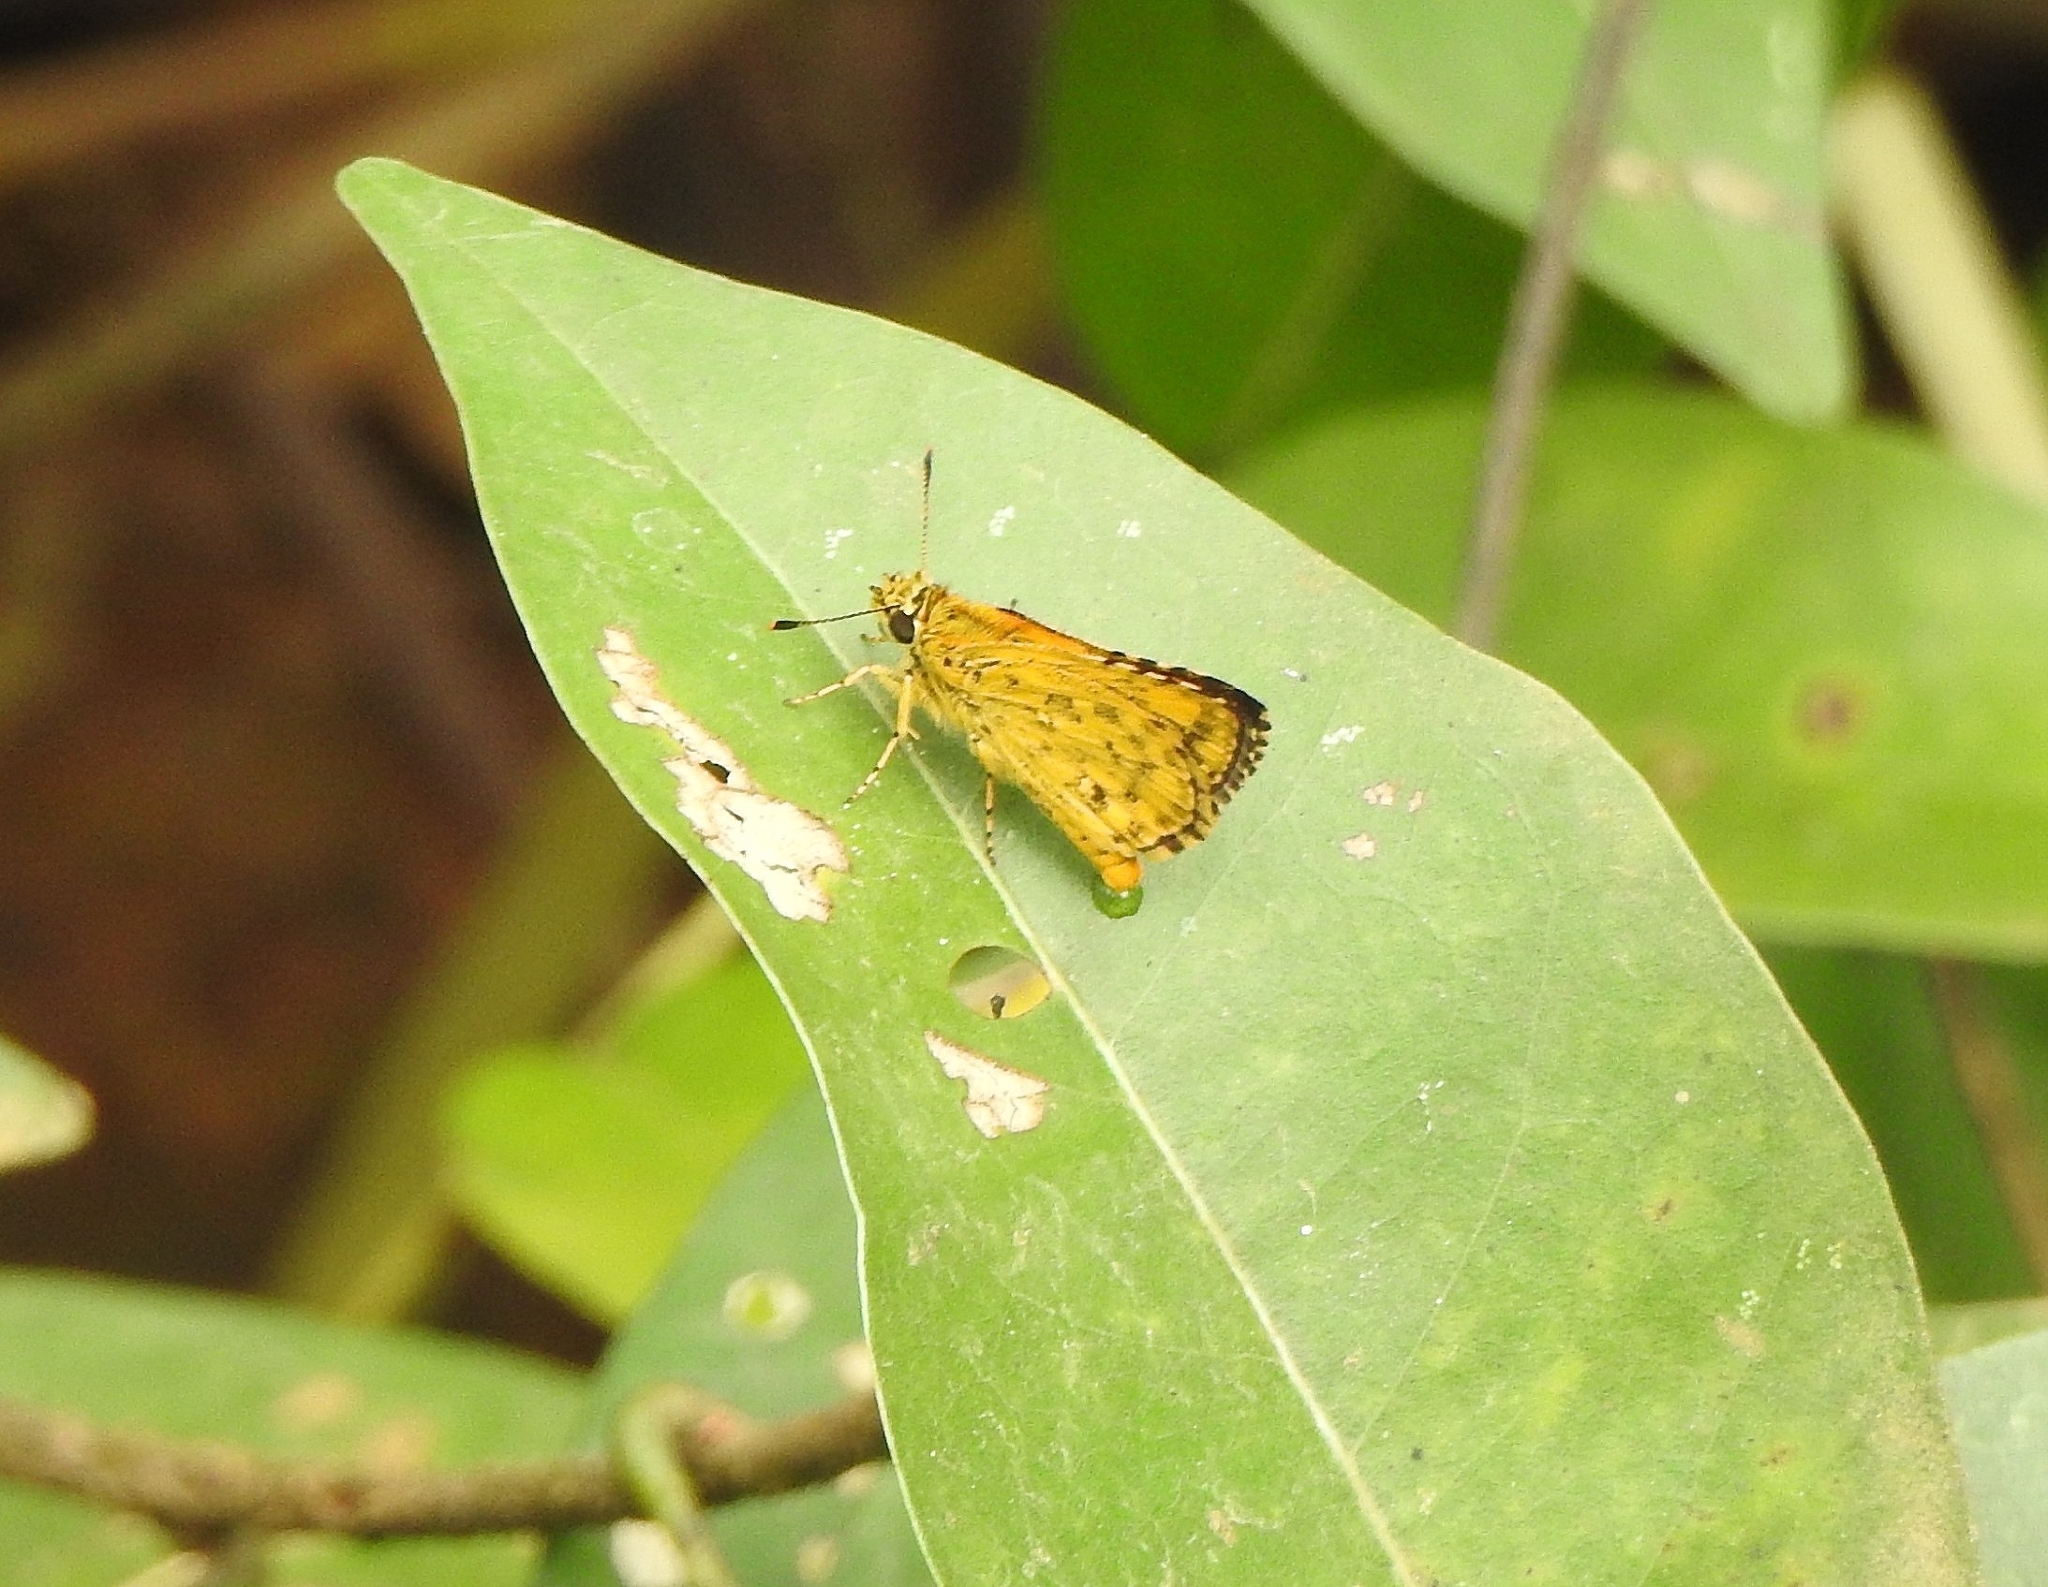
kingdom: Animalia
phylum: Arthropoda
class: Insecta
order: Lepidoptera
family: Hesperiidae
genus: Ampittia
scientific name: Ampittia dioscorides
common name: Common bush hopper
